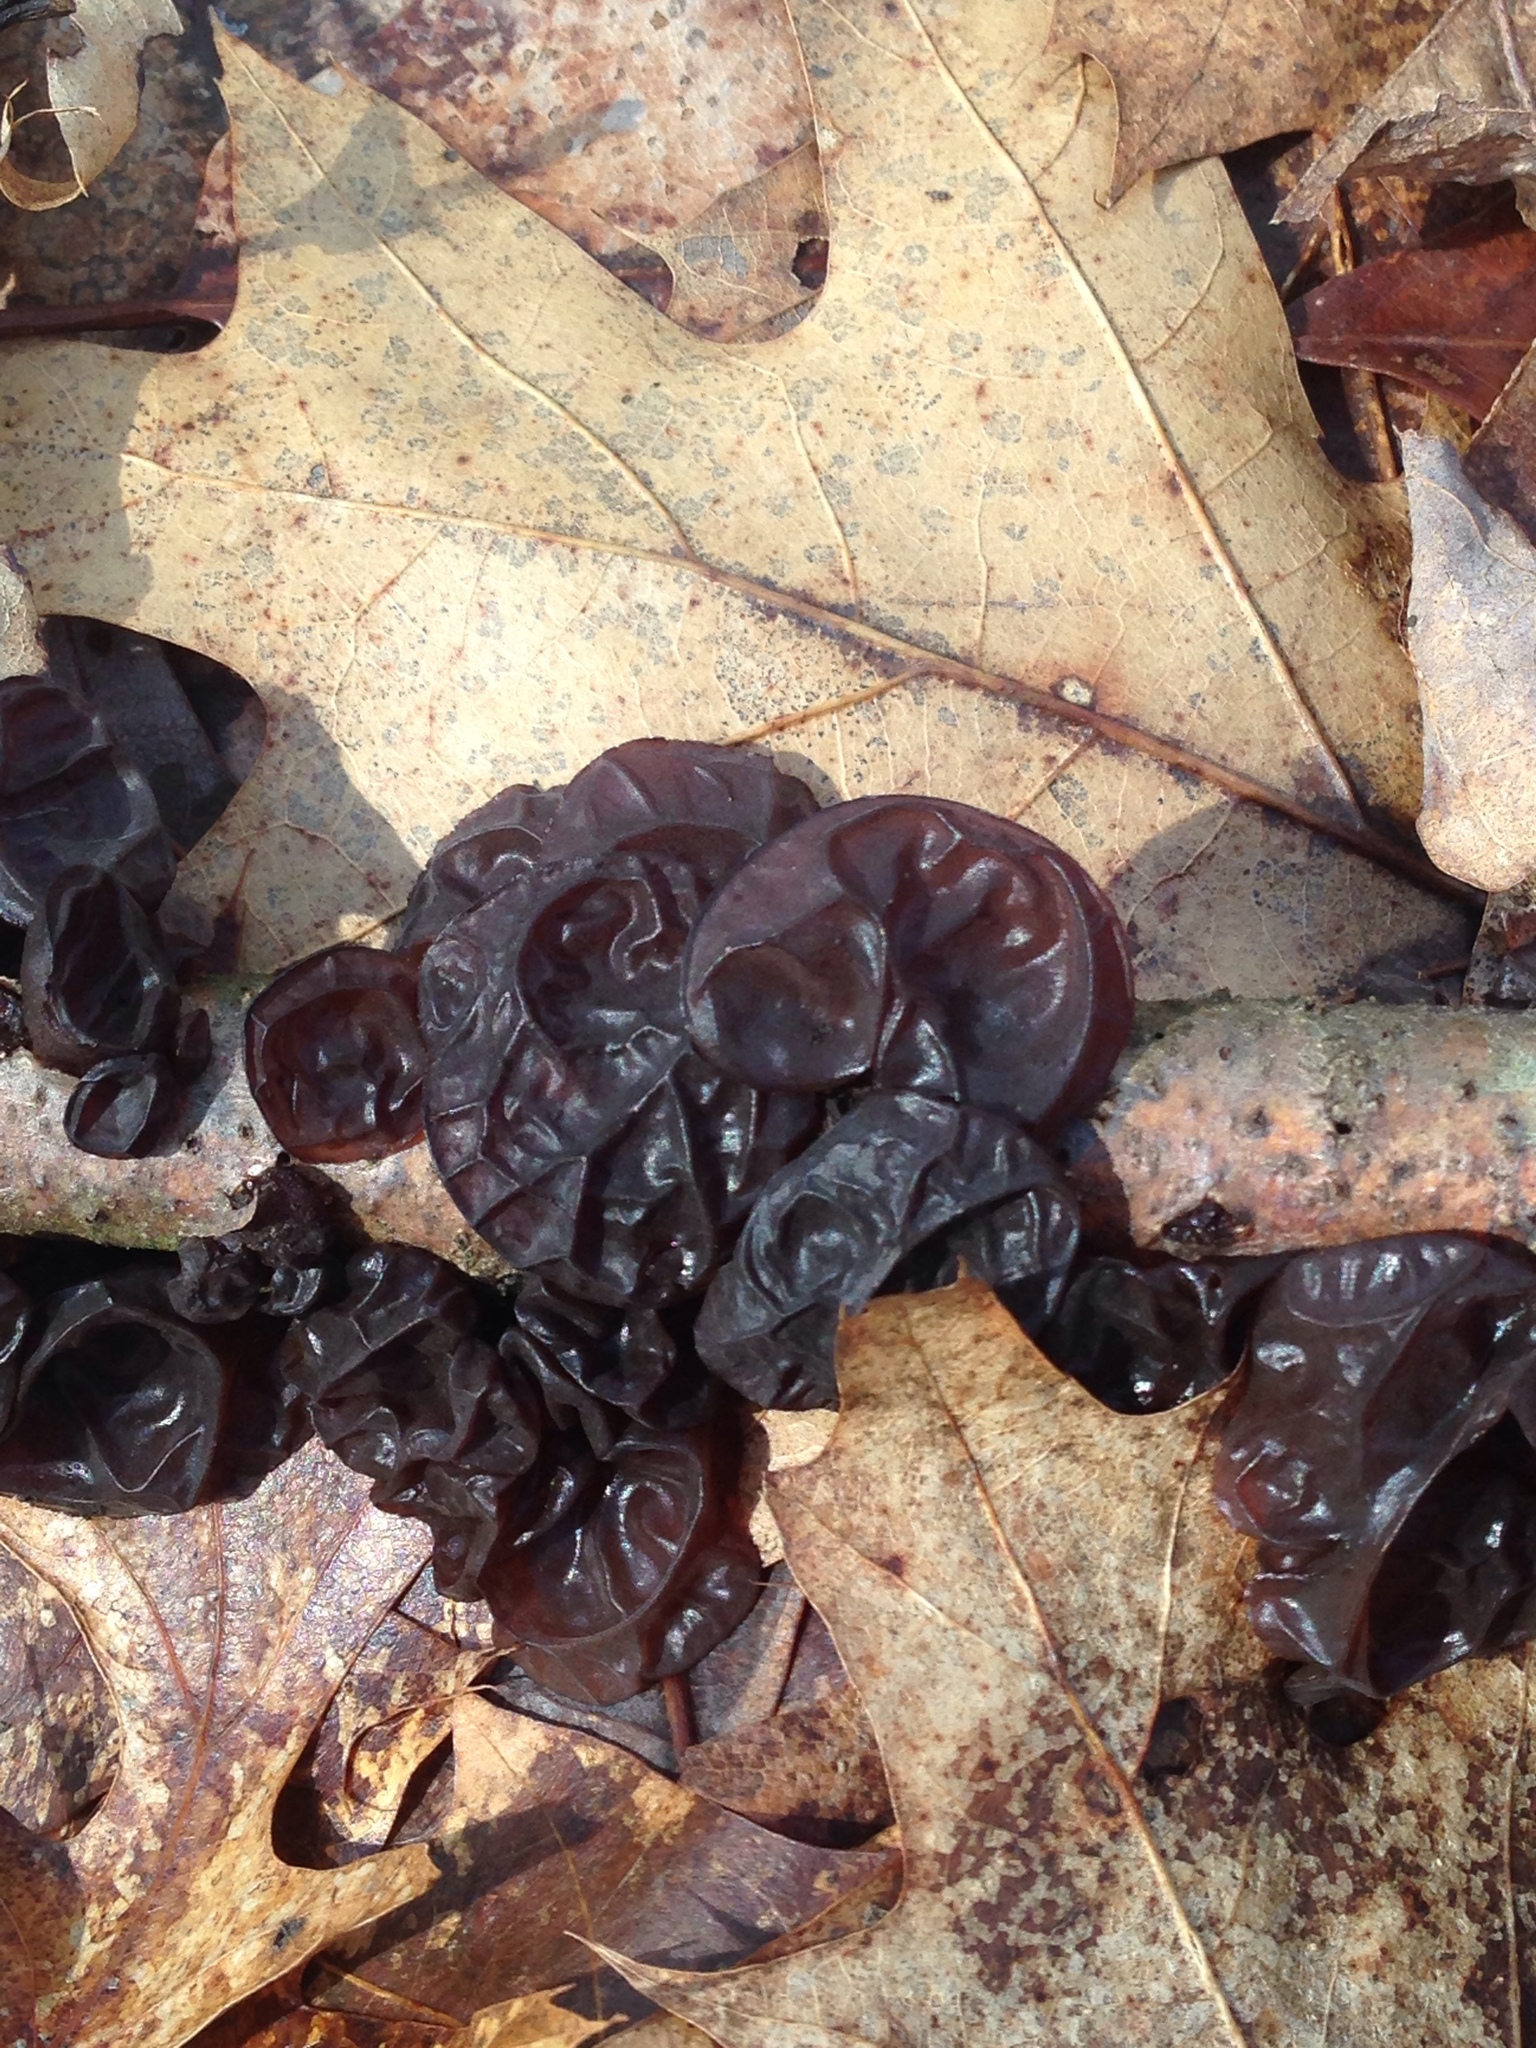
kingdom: Fungi
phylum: Basidiomycota
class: Agaricomycetes
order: Auriculariales
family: Auriculariaceae
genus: Exidia
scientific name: Exidia
